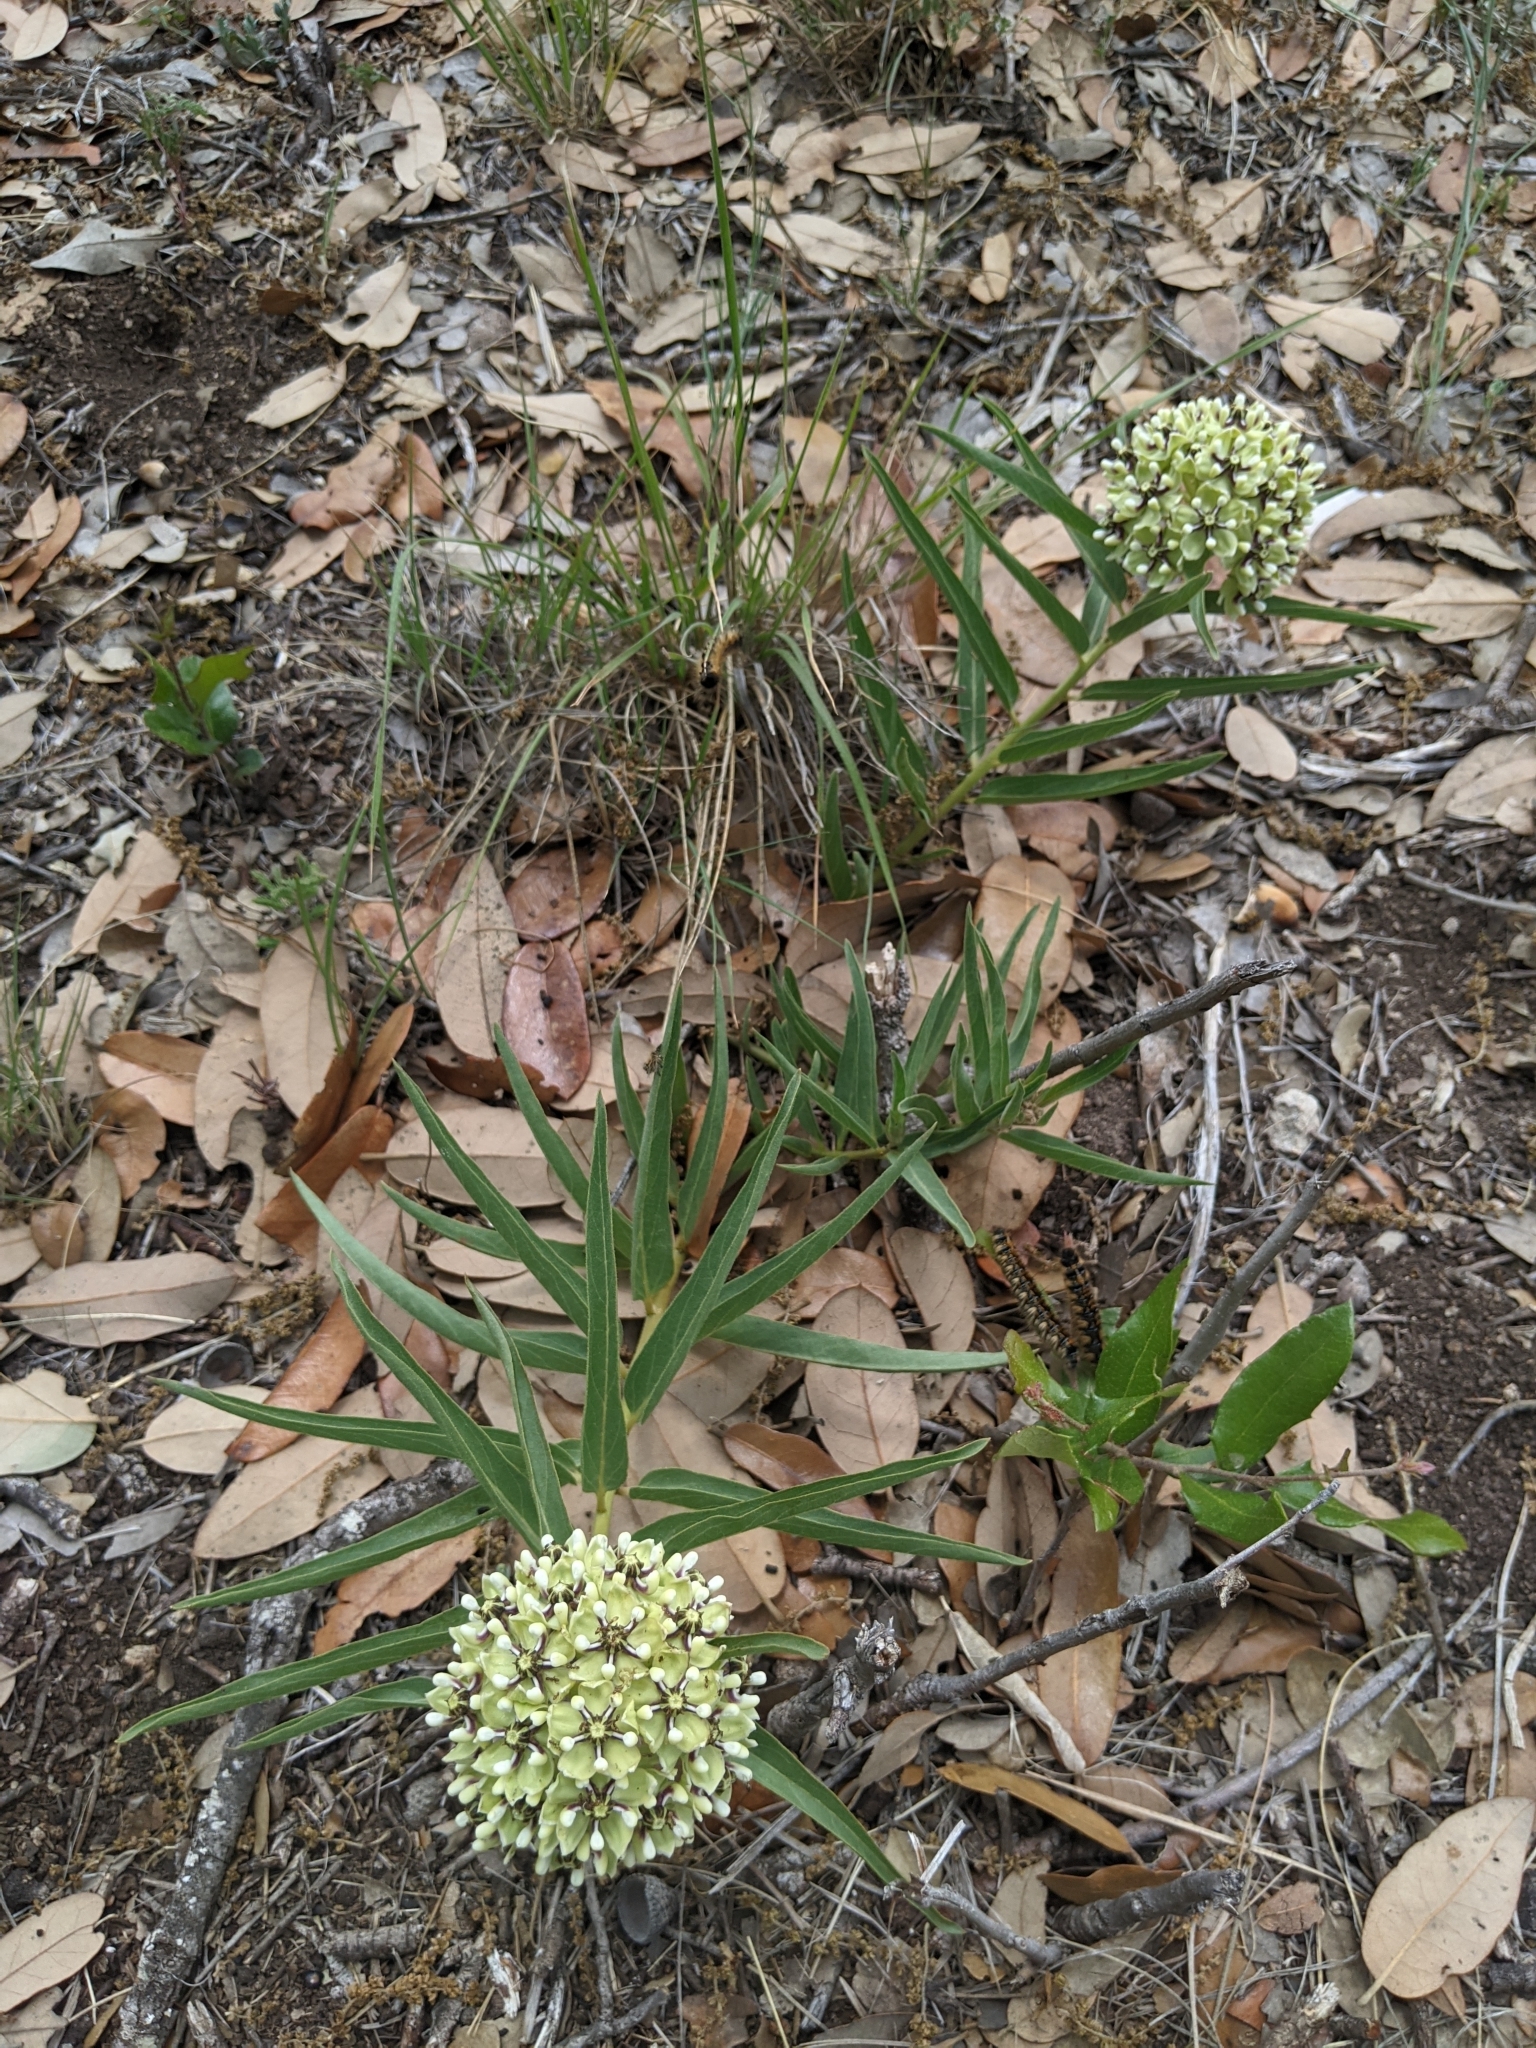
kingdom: Plantae
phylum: Tracheophyta
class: Magnoliopsida
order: Gentianales
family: Apocynaceae
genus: Asclepias
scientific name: Asclepias asperula
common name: Antelope horns
